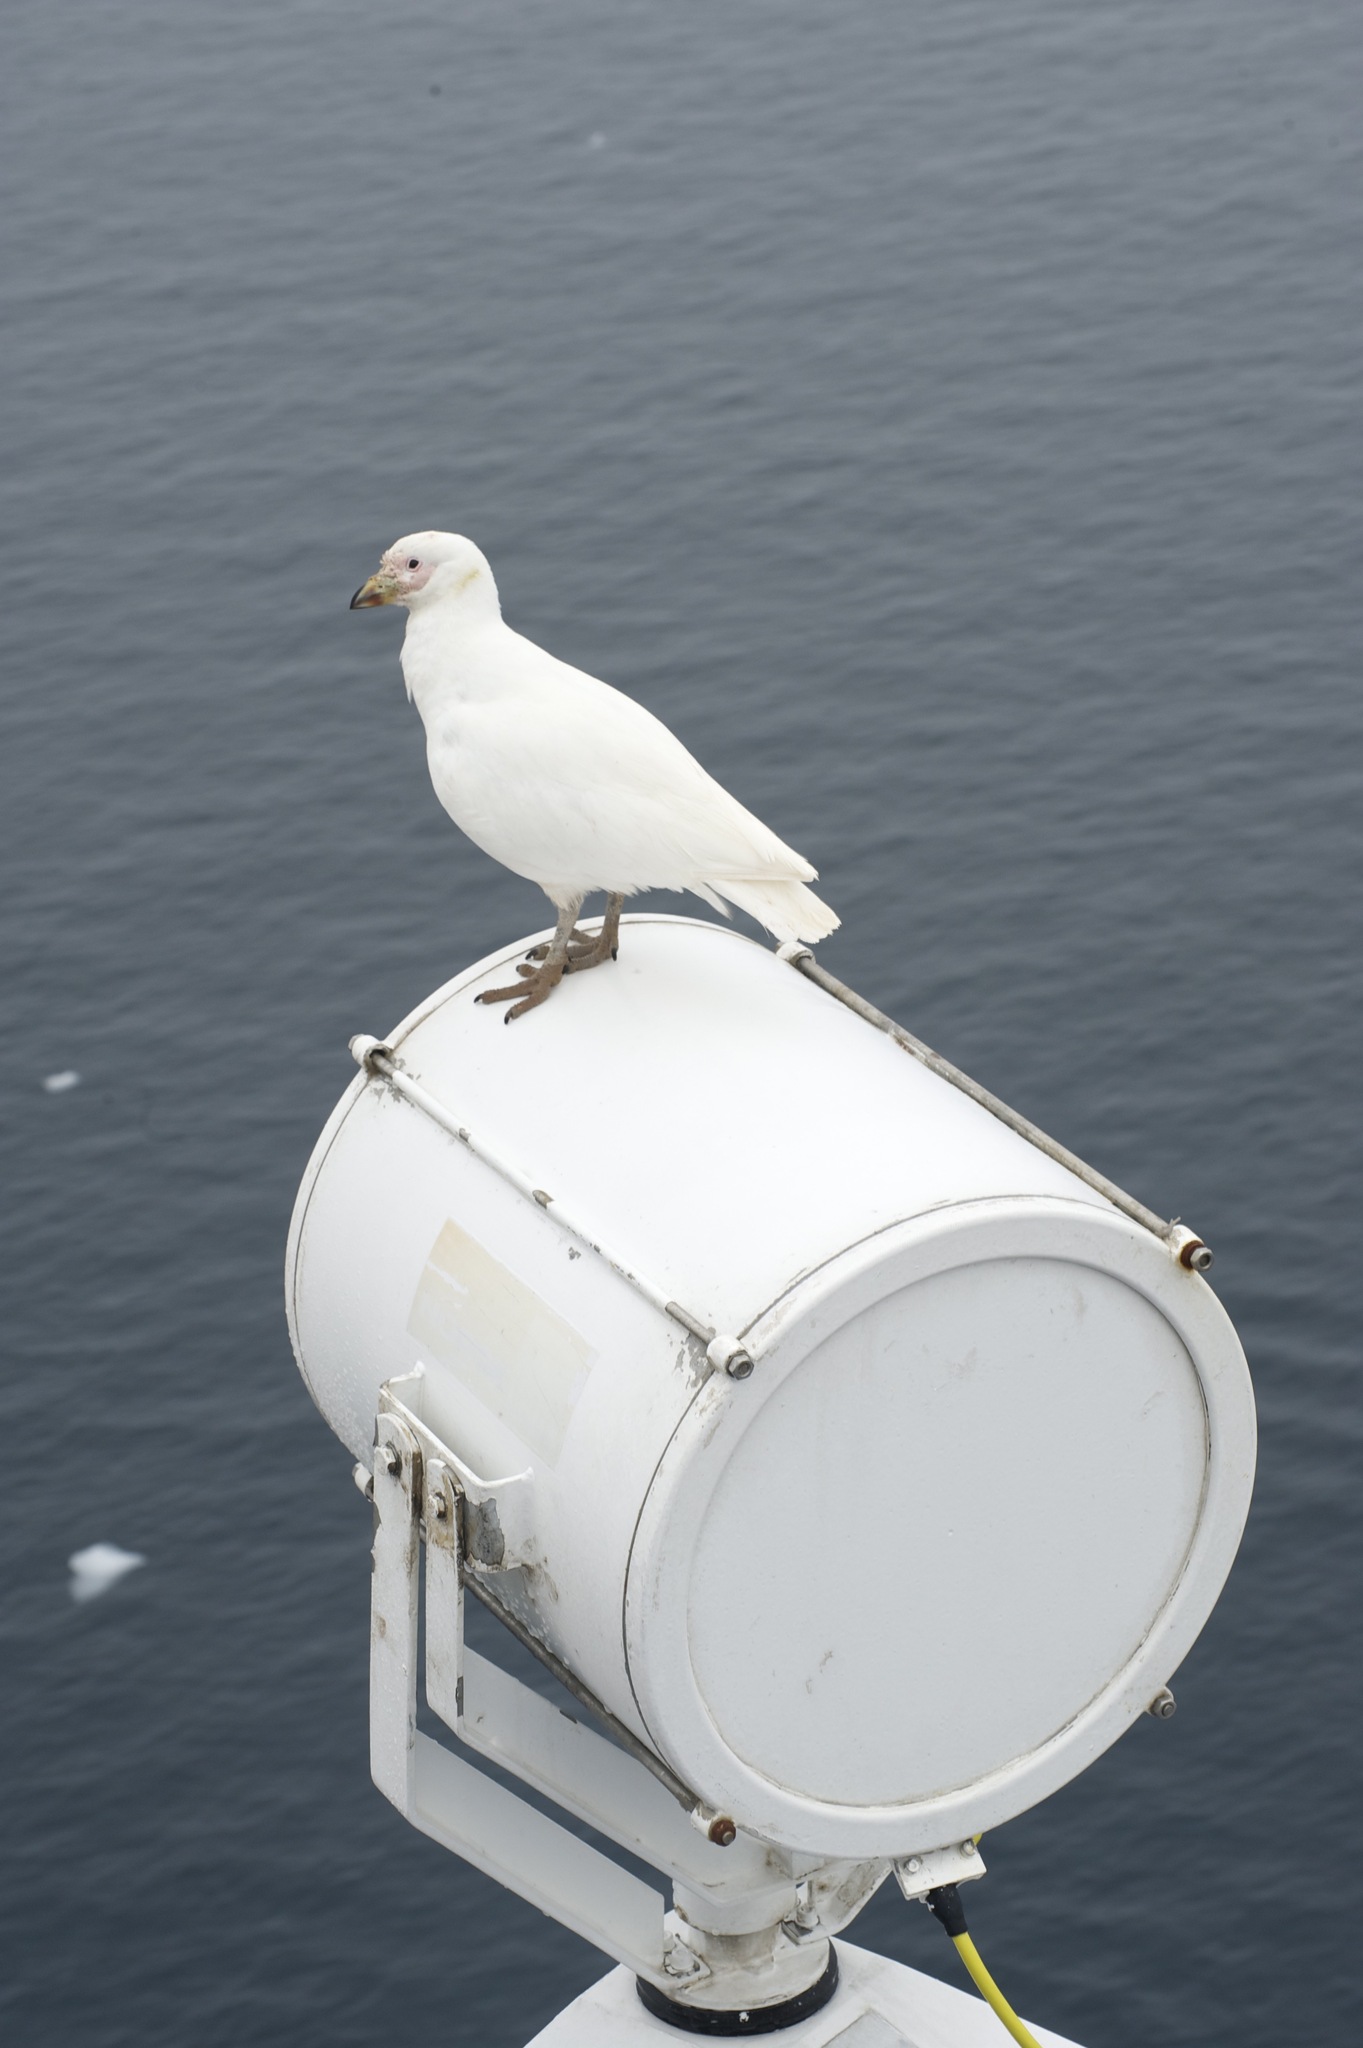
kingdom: Animalia
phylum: Chordata
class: Aves
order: Charadriiformes
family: Chionidae
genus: Chionis
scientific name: Chionis albus
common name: Snowy sheathbill
